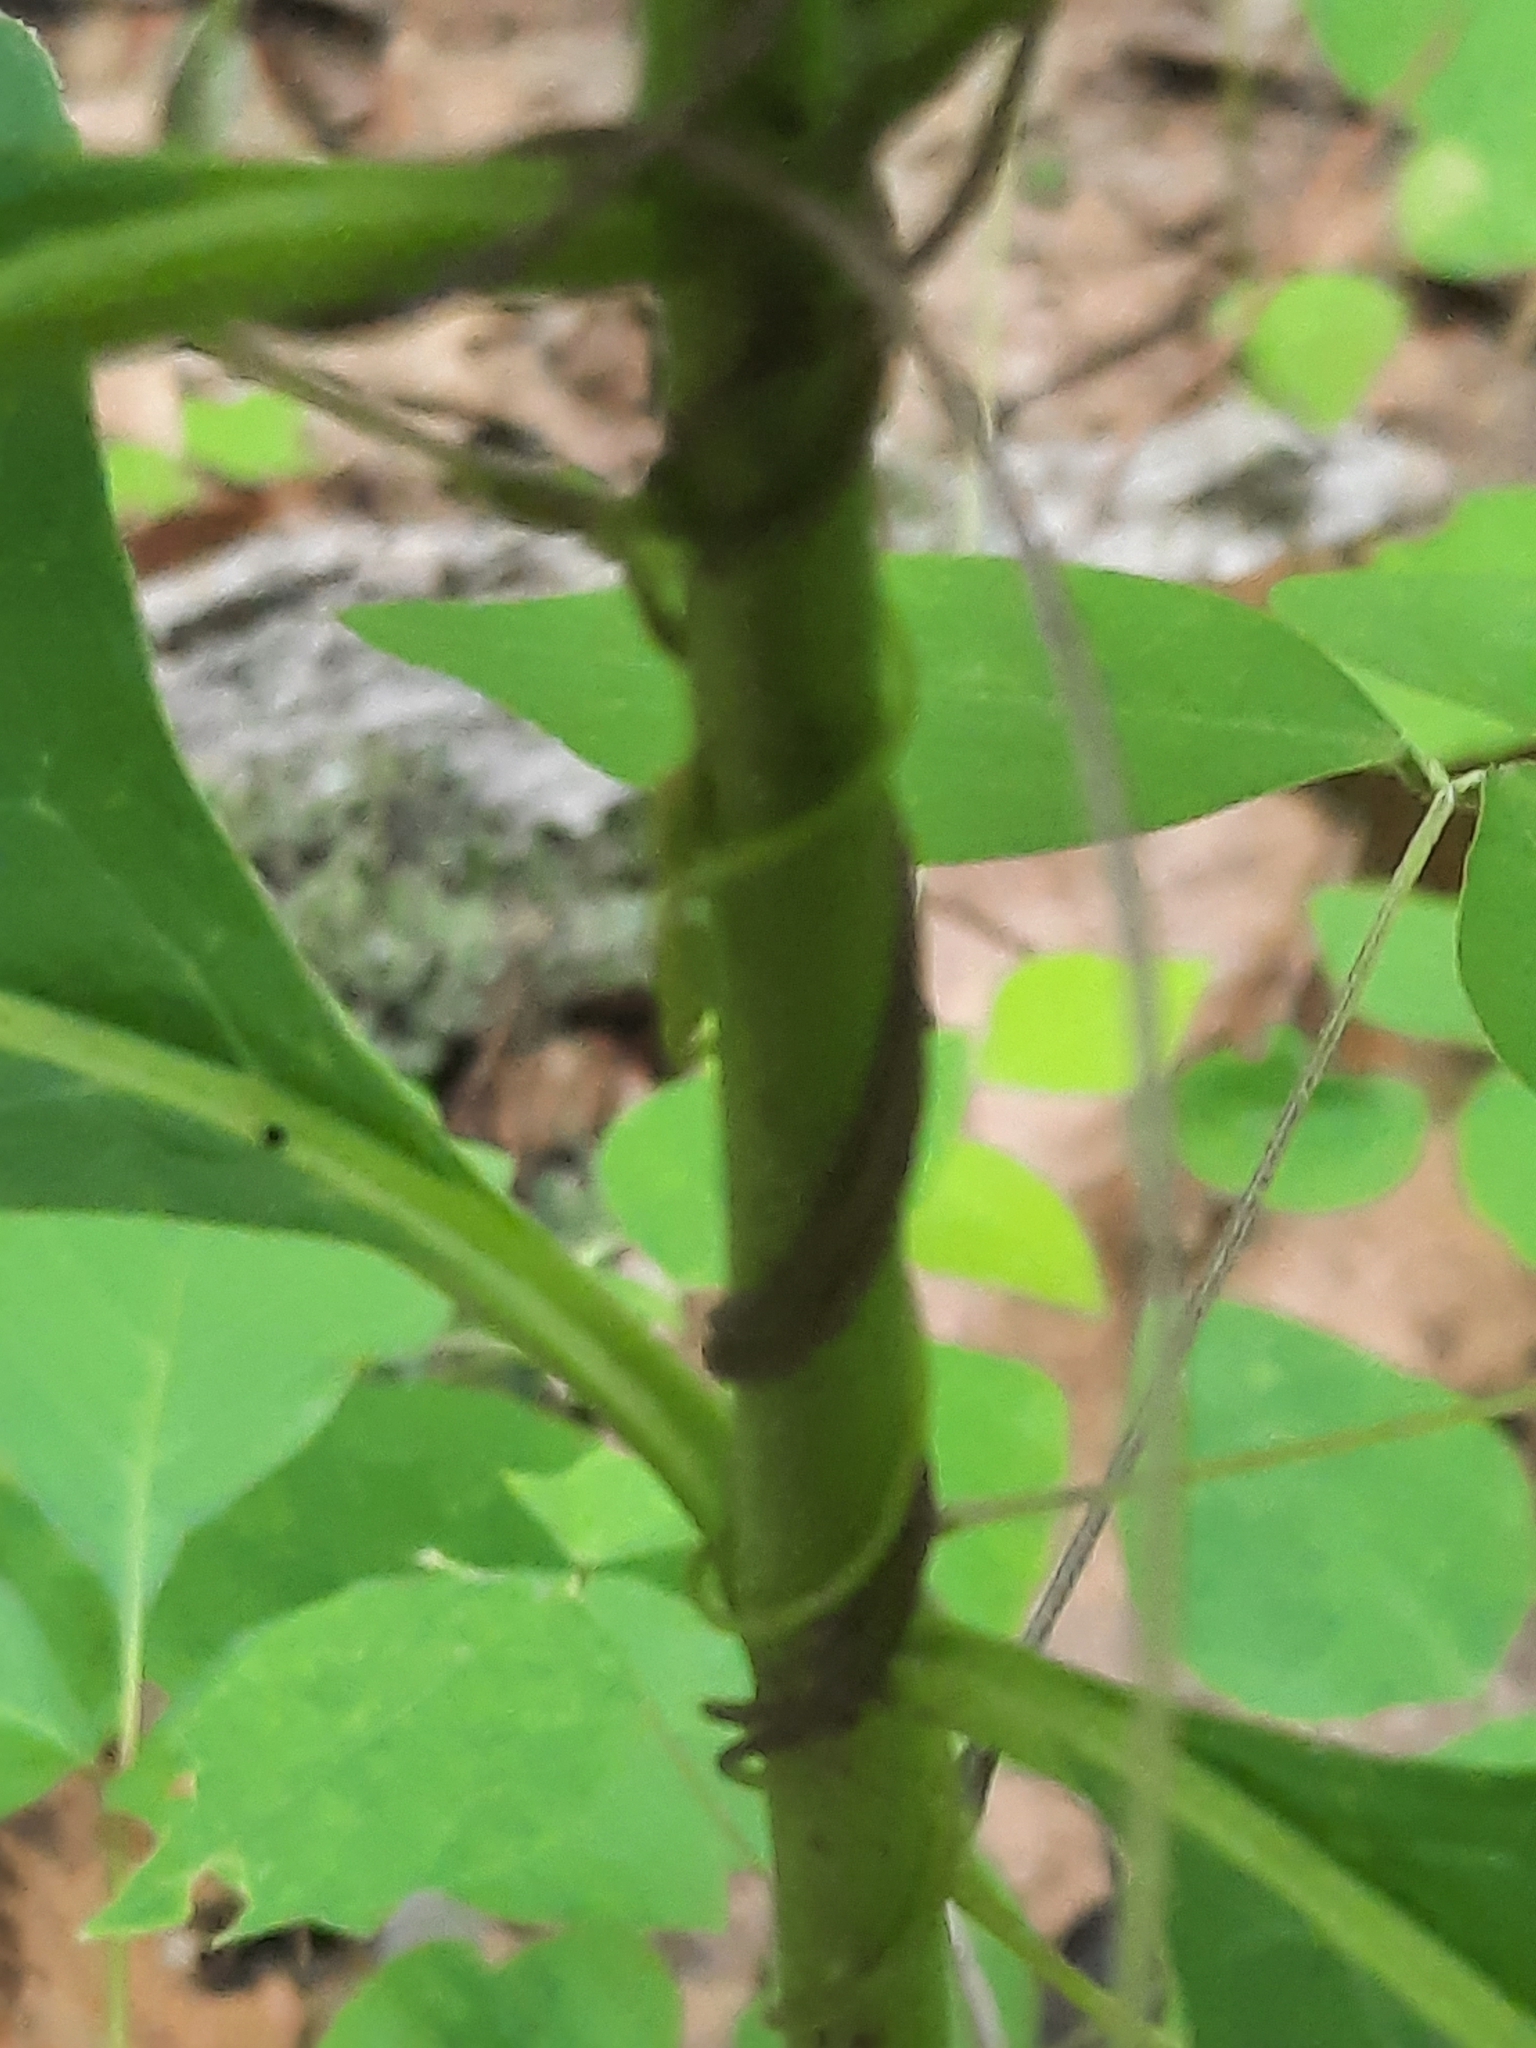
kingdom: Plantae
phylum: Tracheophyta
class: Magnoliopsida
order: Gentianales
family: Apocynaceae
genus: Asclepias
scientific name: Asclepias exaltata
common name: Poke milkweed
